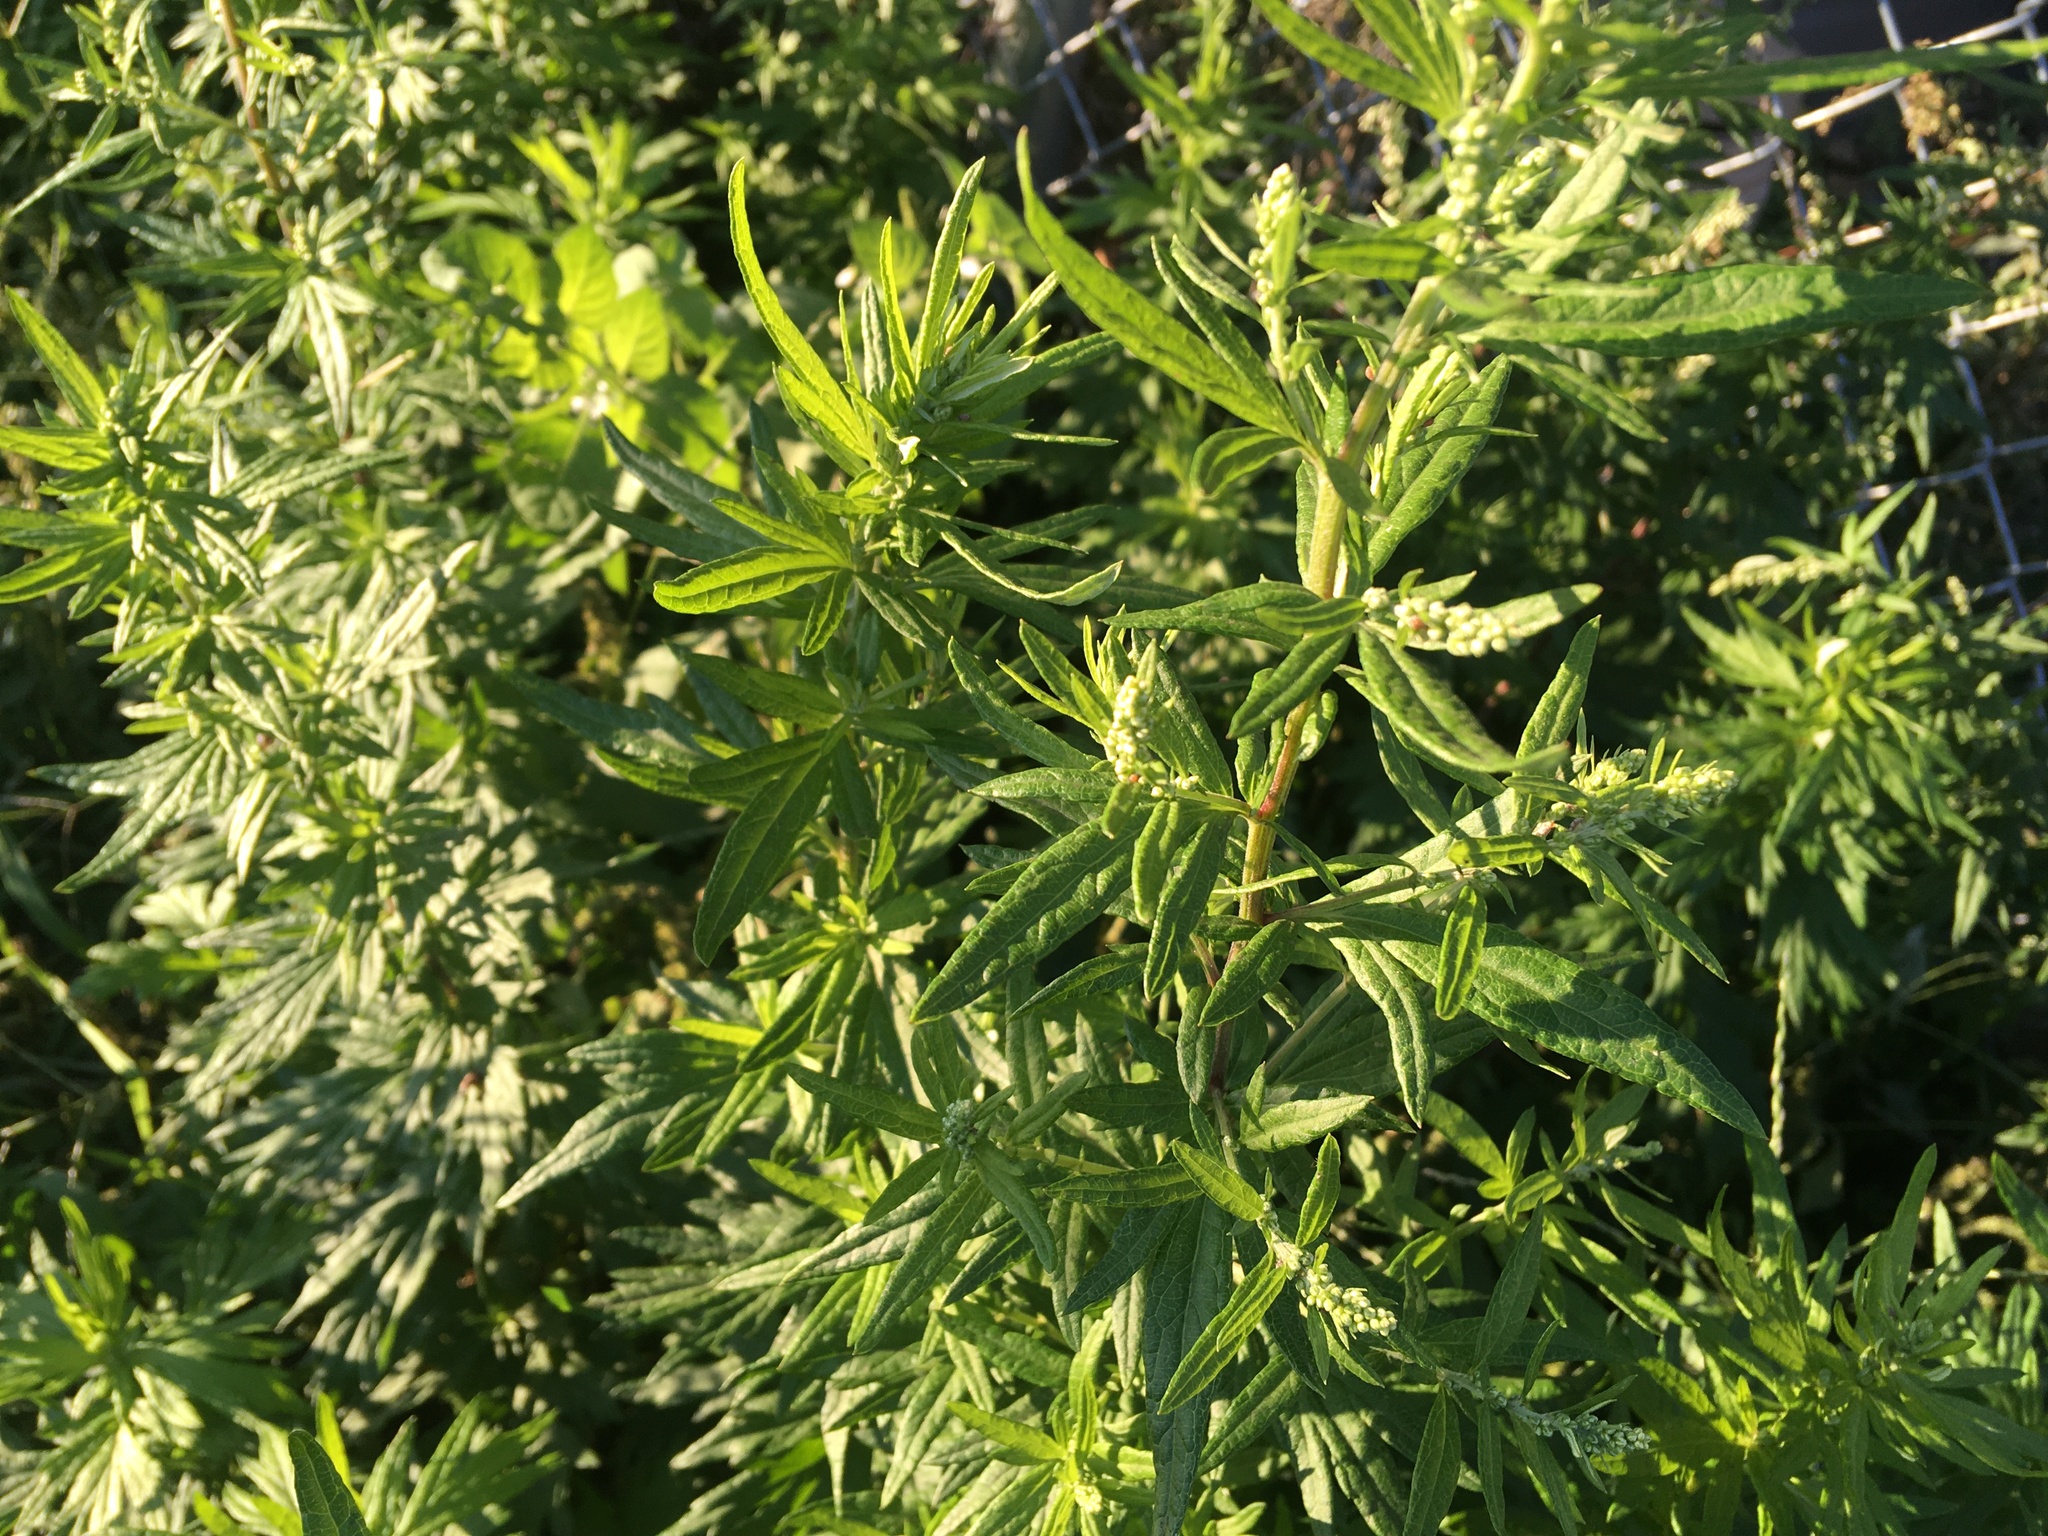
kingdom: Plantae
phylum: Tracheophyta
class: Magnoliopsida
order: Asterales
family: Asteraceae
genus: Artemisia
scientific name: Artemisia vulgaris
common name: Mugwort
